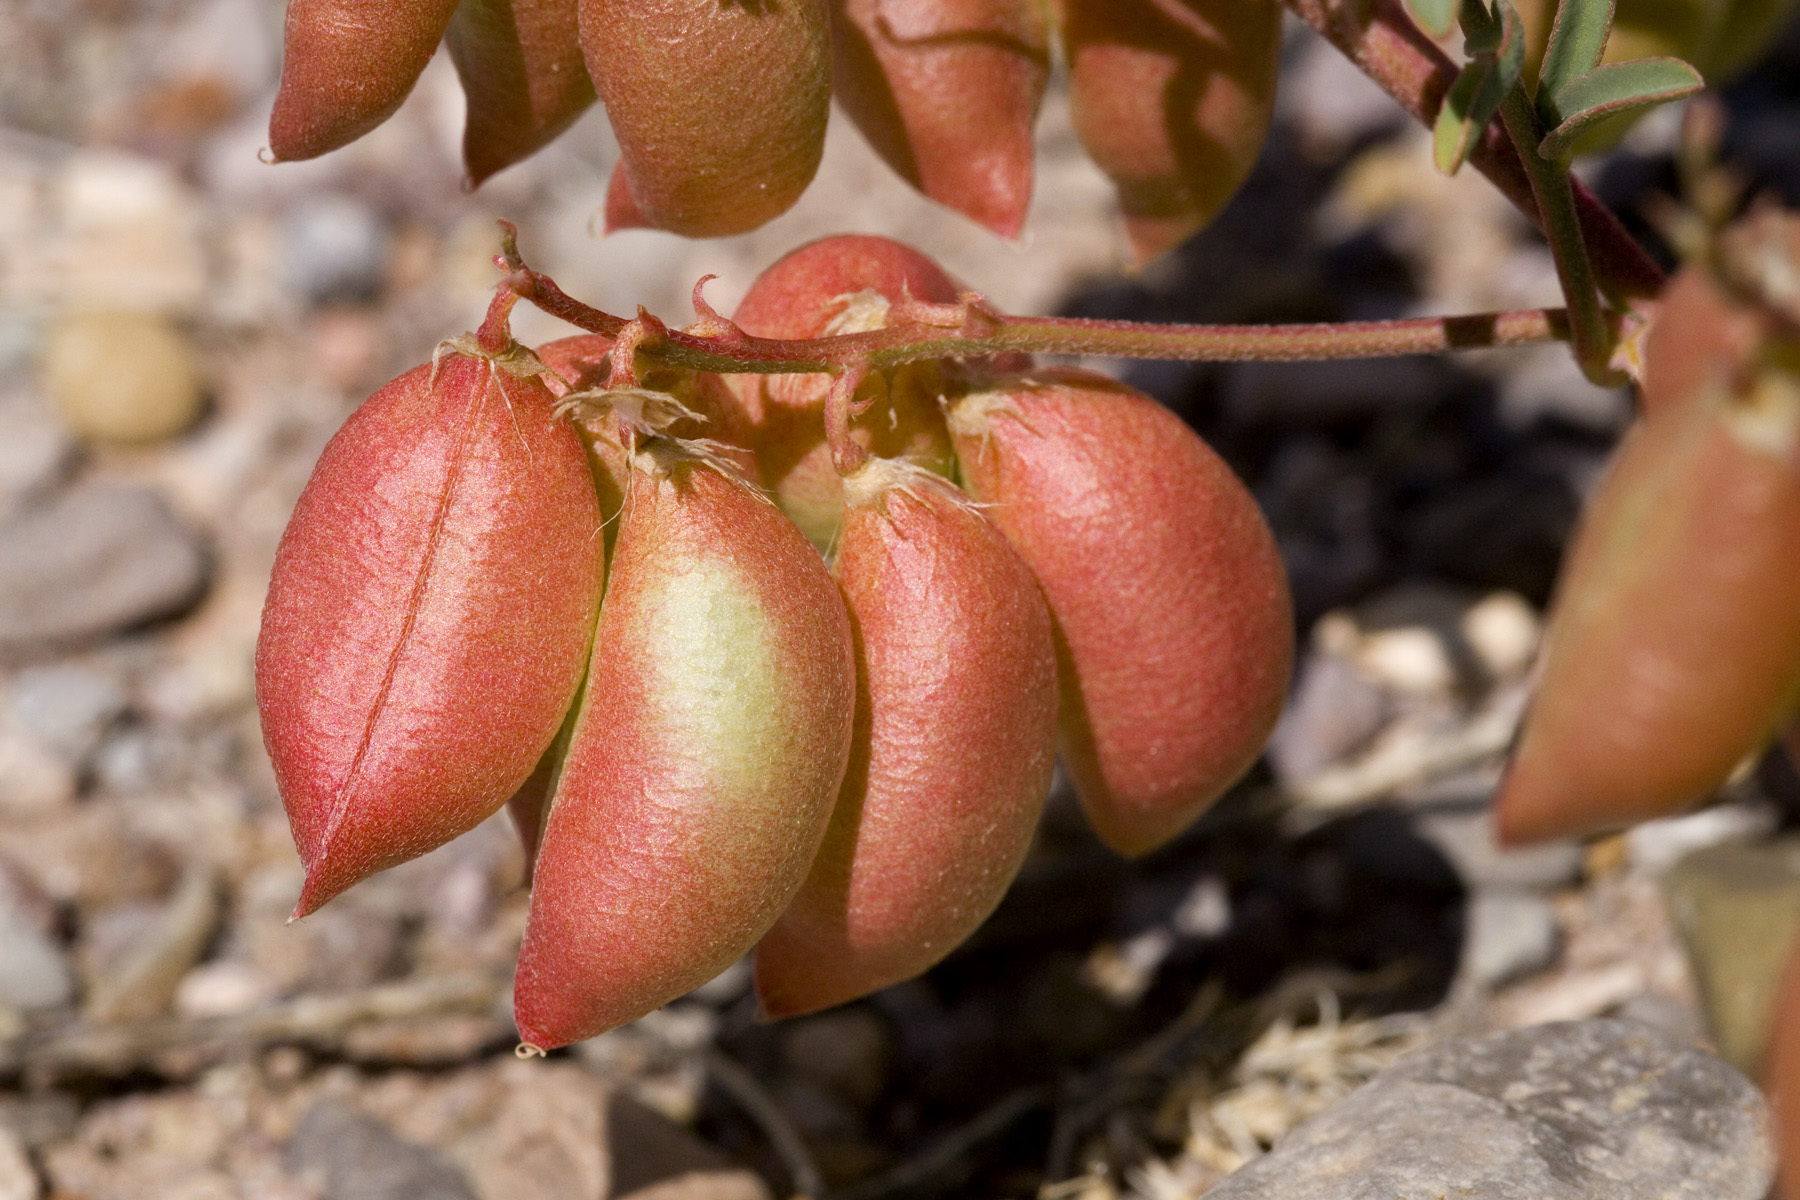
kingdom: Plantae
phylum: Tracheophyta
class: Magnoliopsida
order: Fabales
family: Fabaceae
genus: Astragalus
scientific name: Astragalus allochrous
